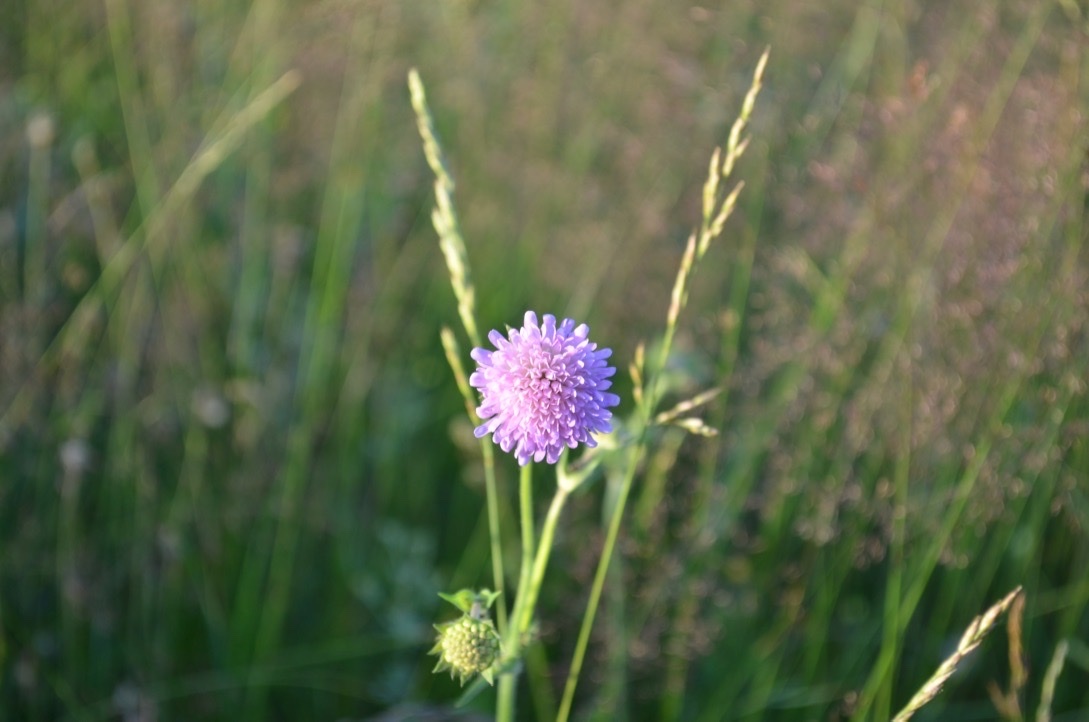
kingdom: Plantae
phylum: Tracheophyta
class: Magnoliopsida
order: Dipsacales
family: Caprifoliaceae
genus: Knautia
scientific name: Knautia arvensis
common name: Field scabiosa
